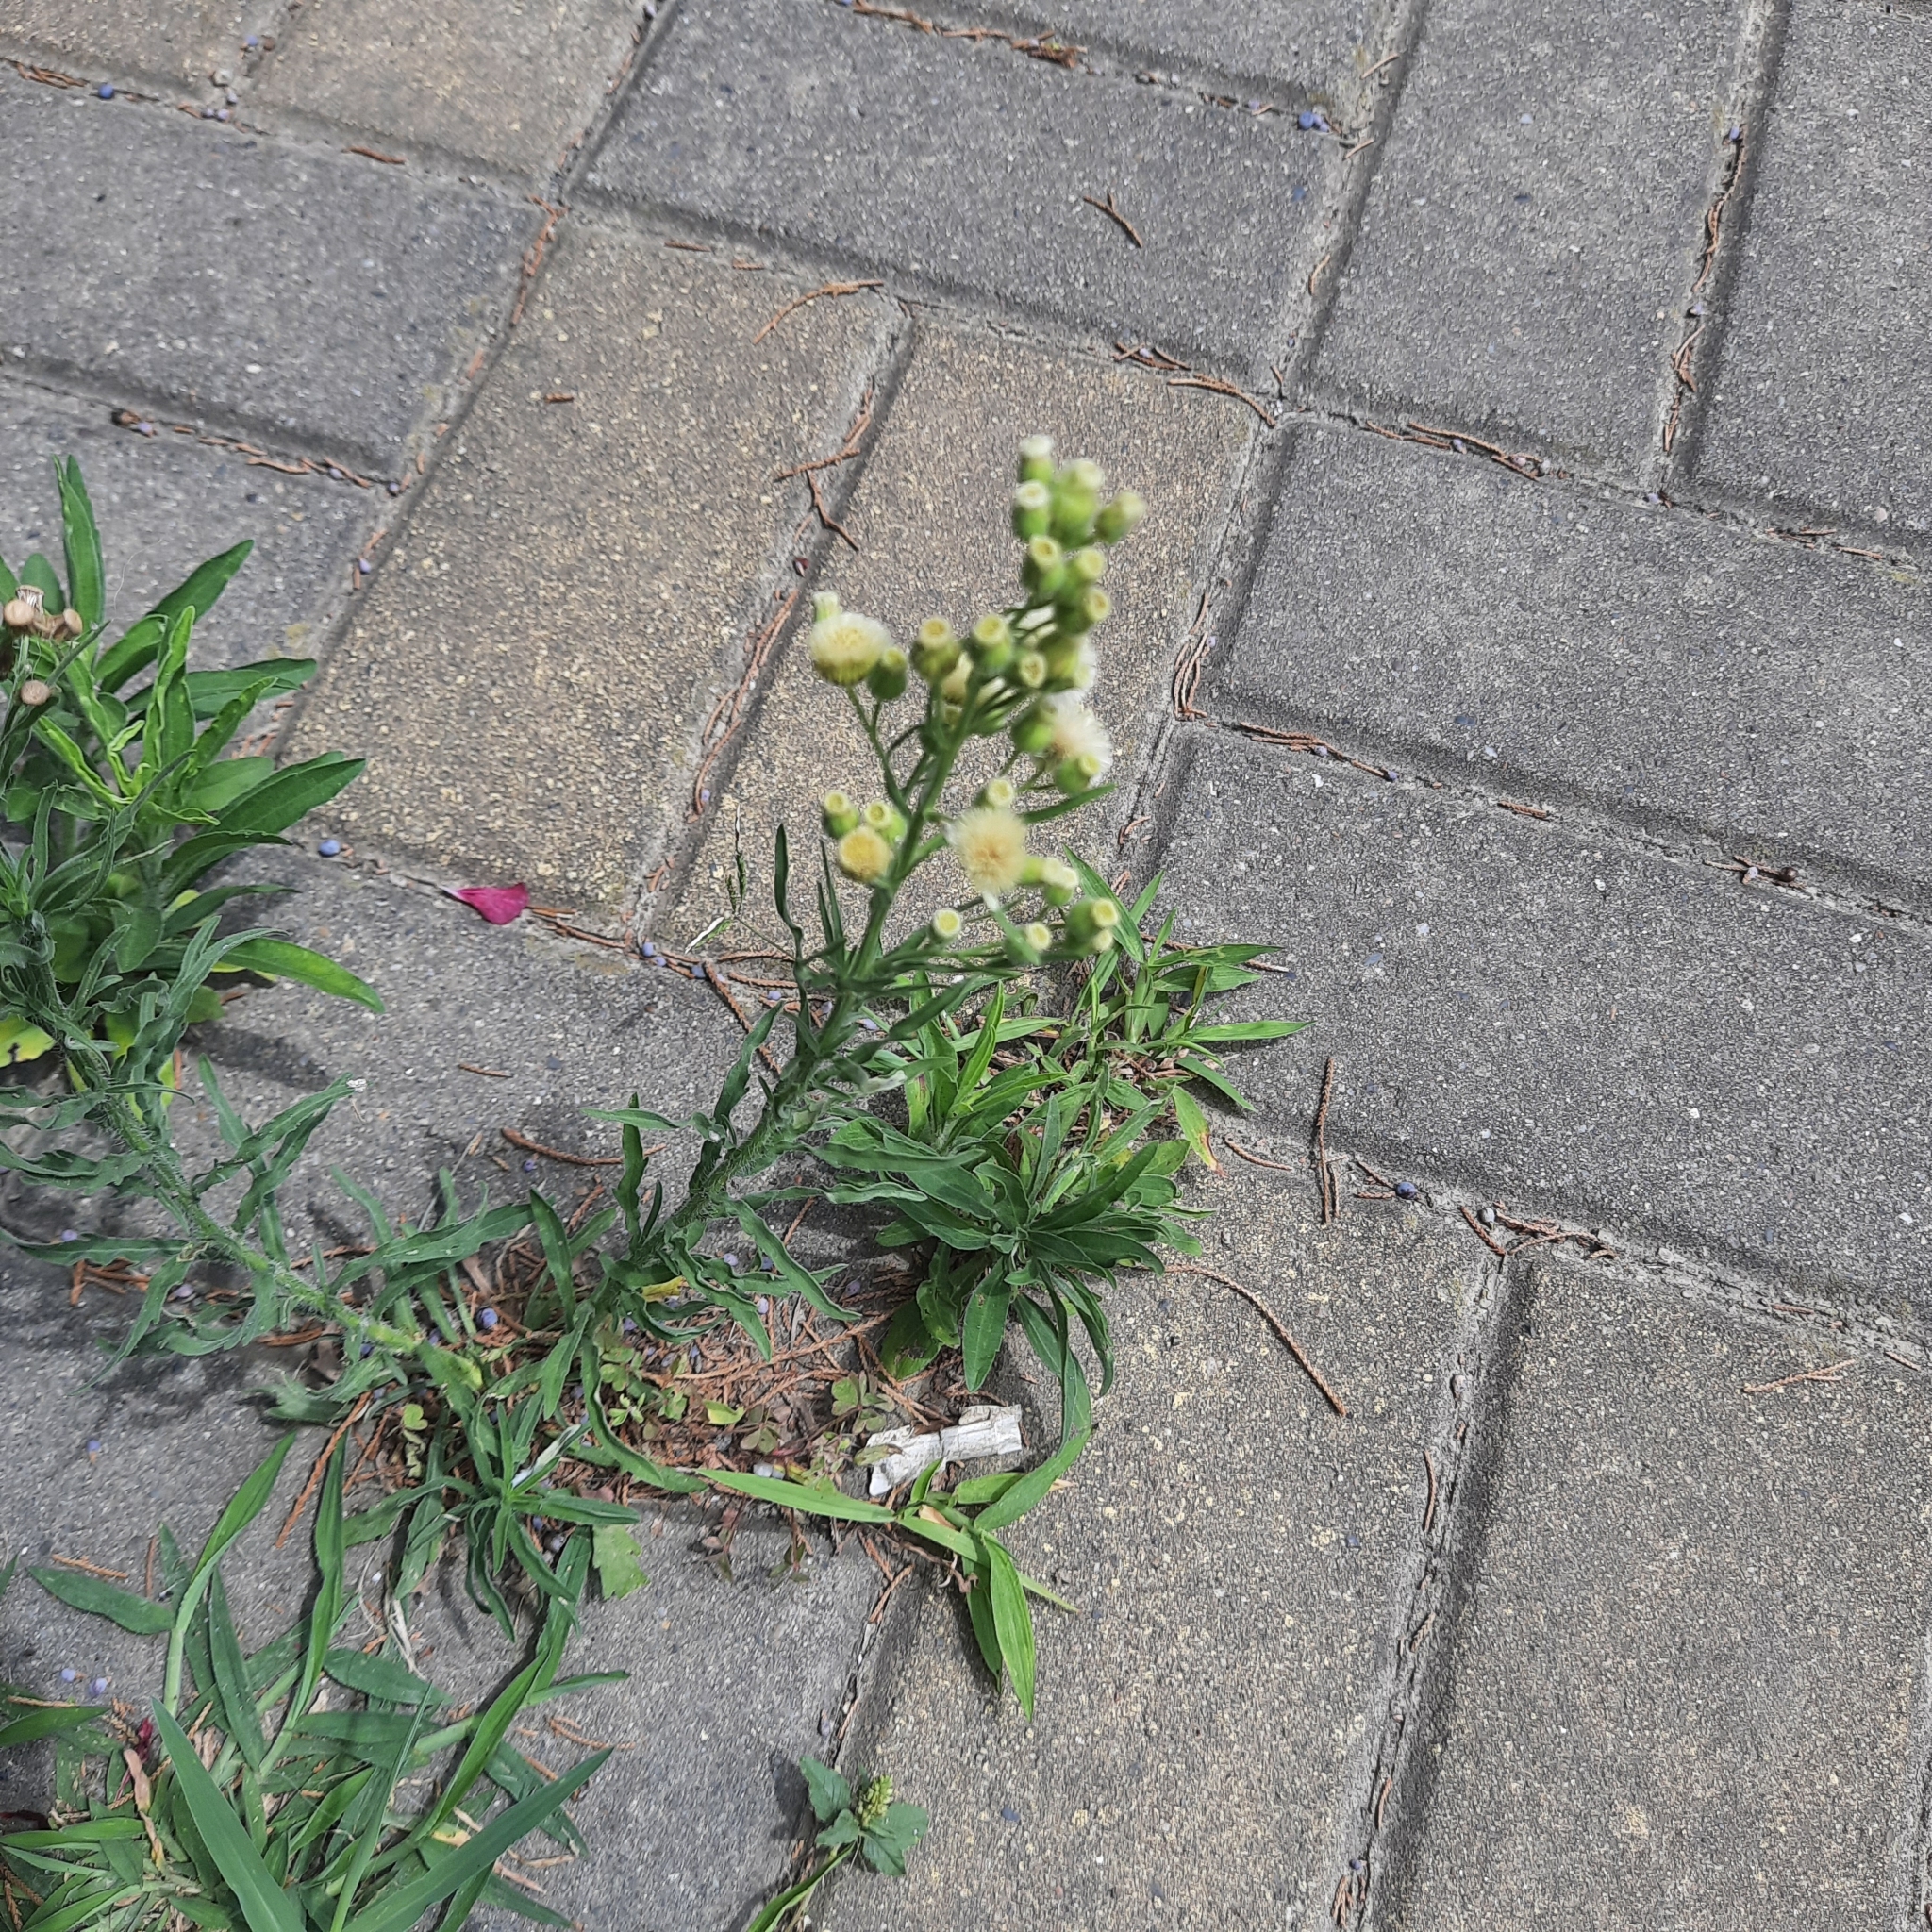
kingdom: Plantae
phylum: Tracheophyta
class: Magnoliopsida
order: Asterales
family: Asteraceae
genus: Erigeron
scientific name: Erigeron bonariensis
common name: Argentine fleabane
